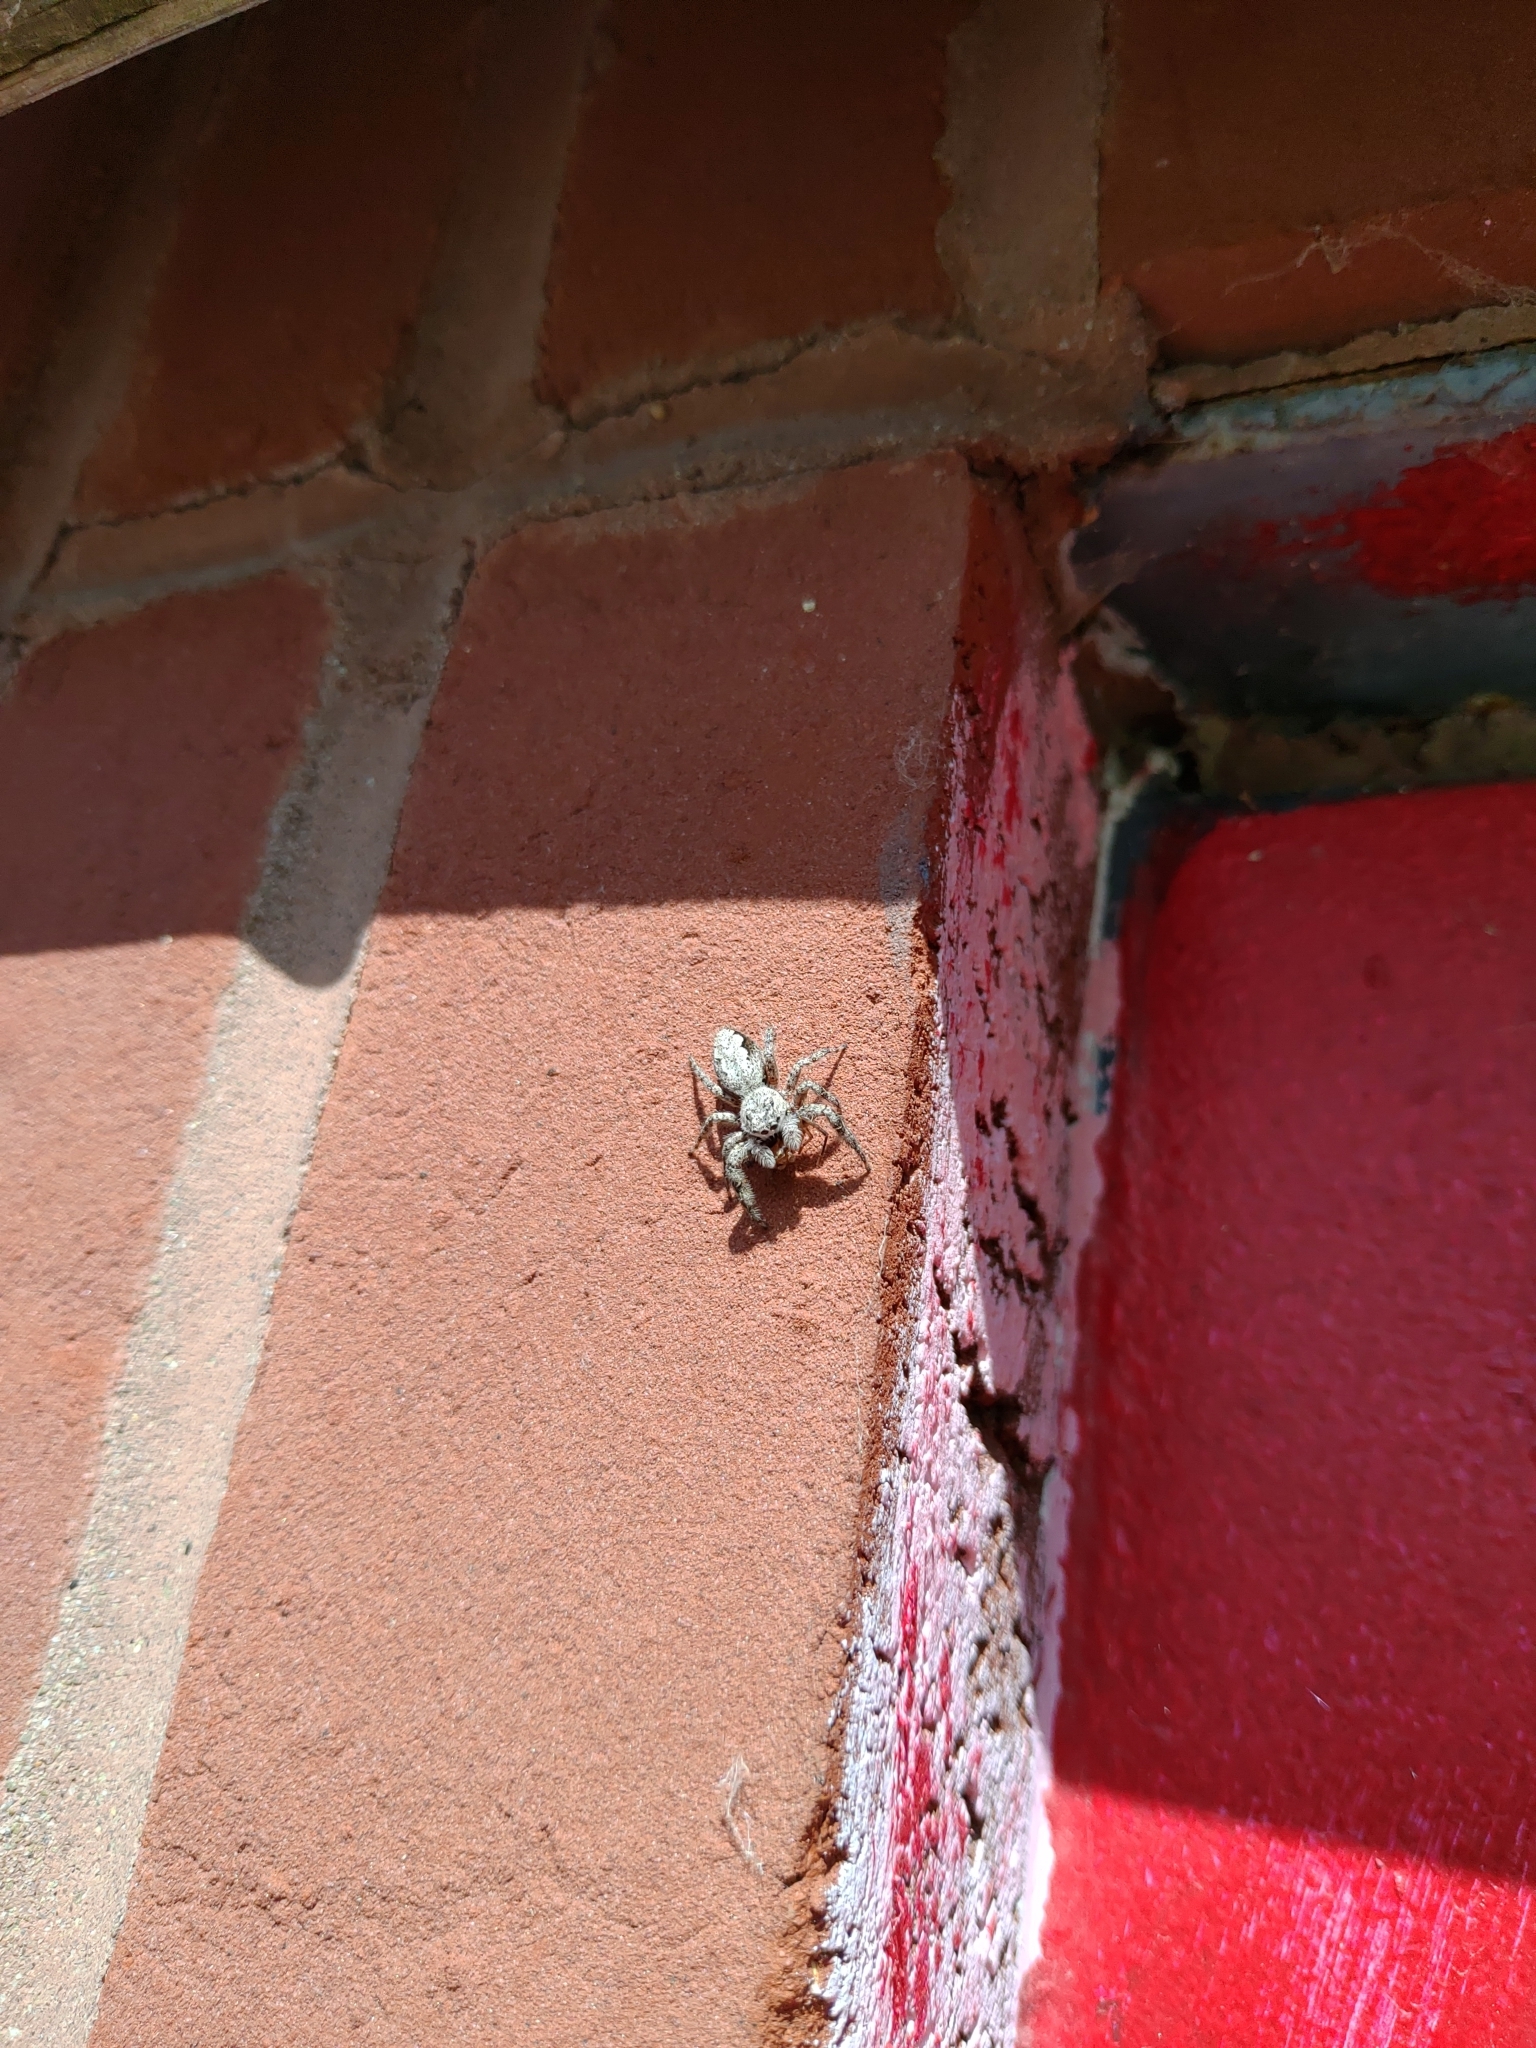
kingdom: Animalia
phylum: Arthropoda
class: Arachnida
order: Araneae
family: Salticidae
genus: Platycryptus
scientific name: Platycryptus undatus
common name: Tan jumping spider
